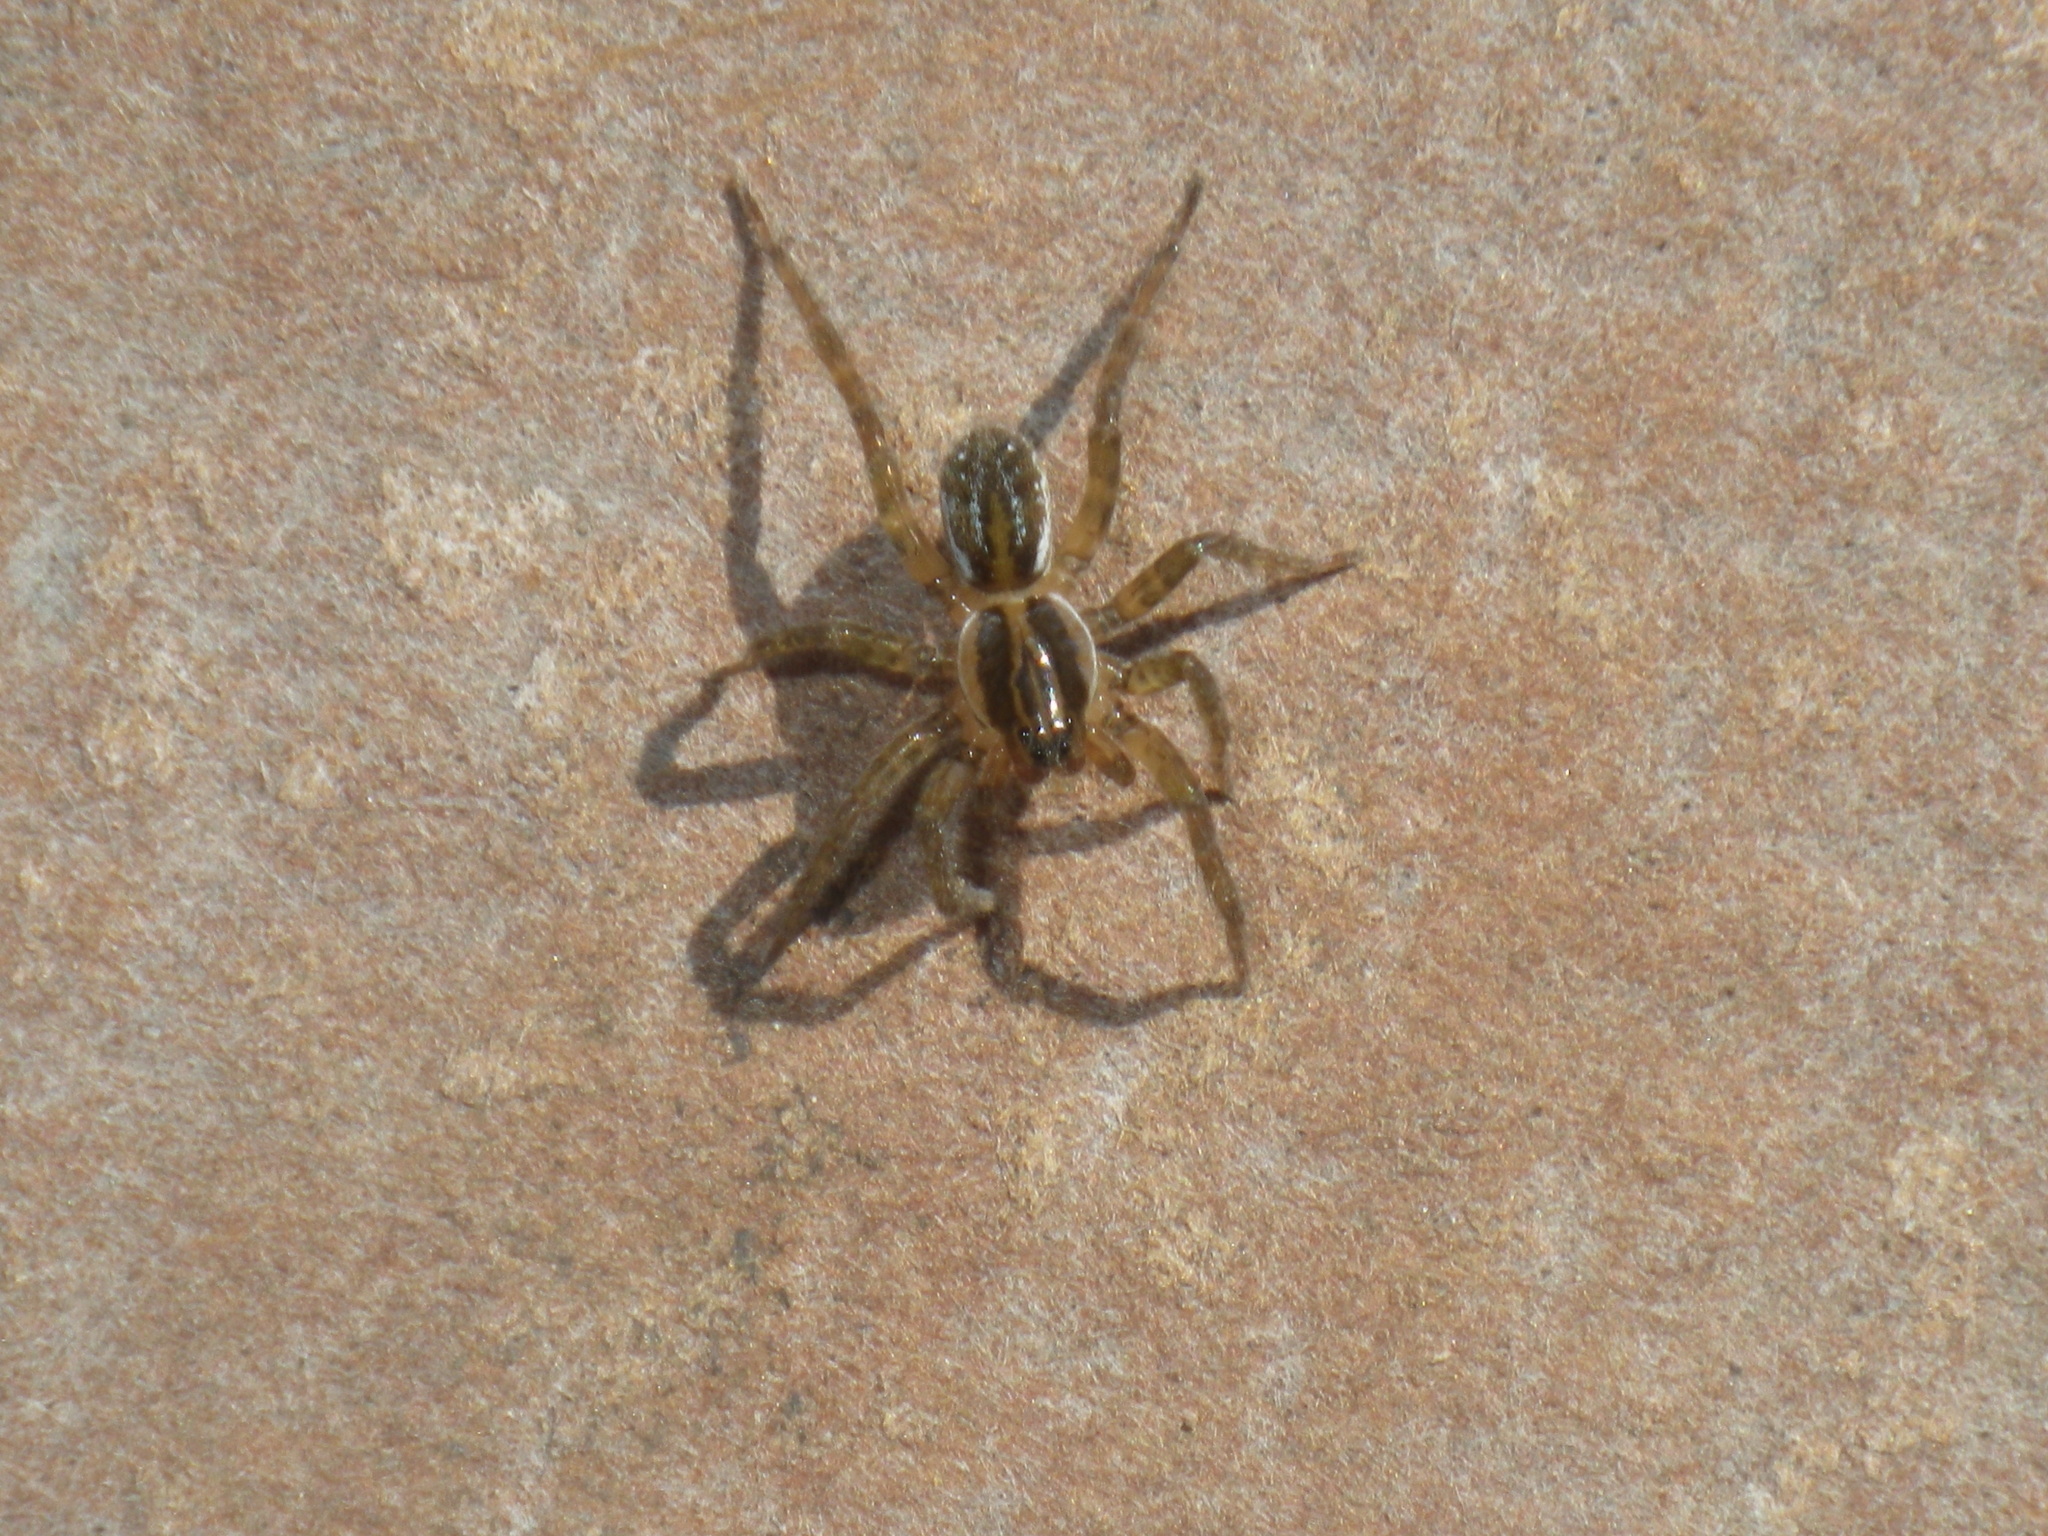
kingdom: Animalia
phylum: Arthropoda
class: Arachnida
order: Araneae
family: Lycosidae
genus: Pirata
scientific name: Pirata piraticus
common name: Pirate otter spider
